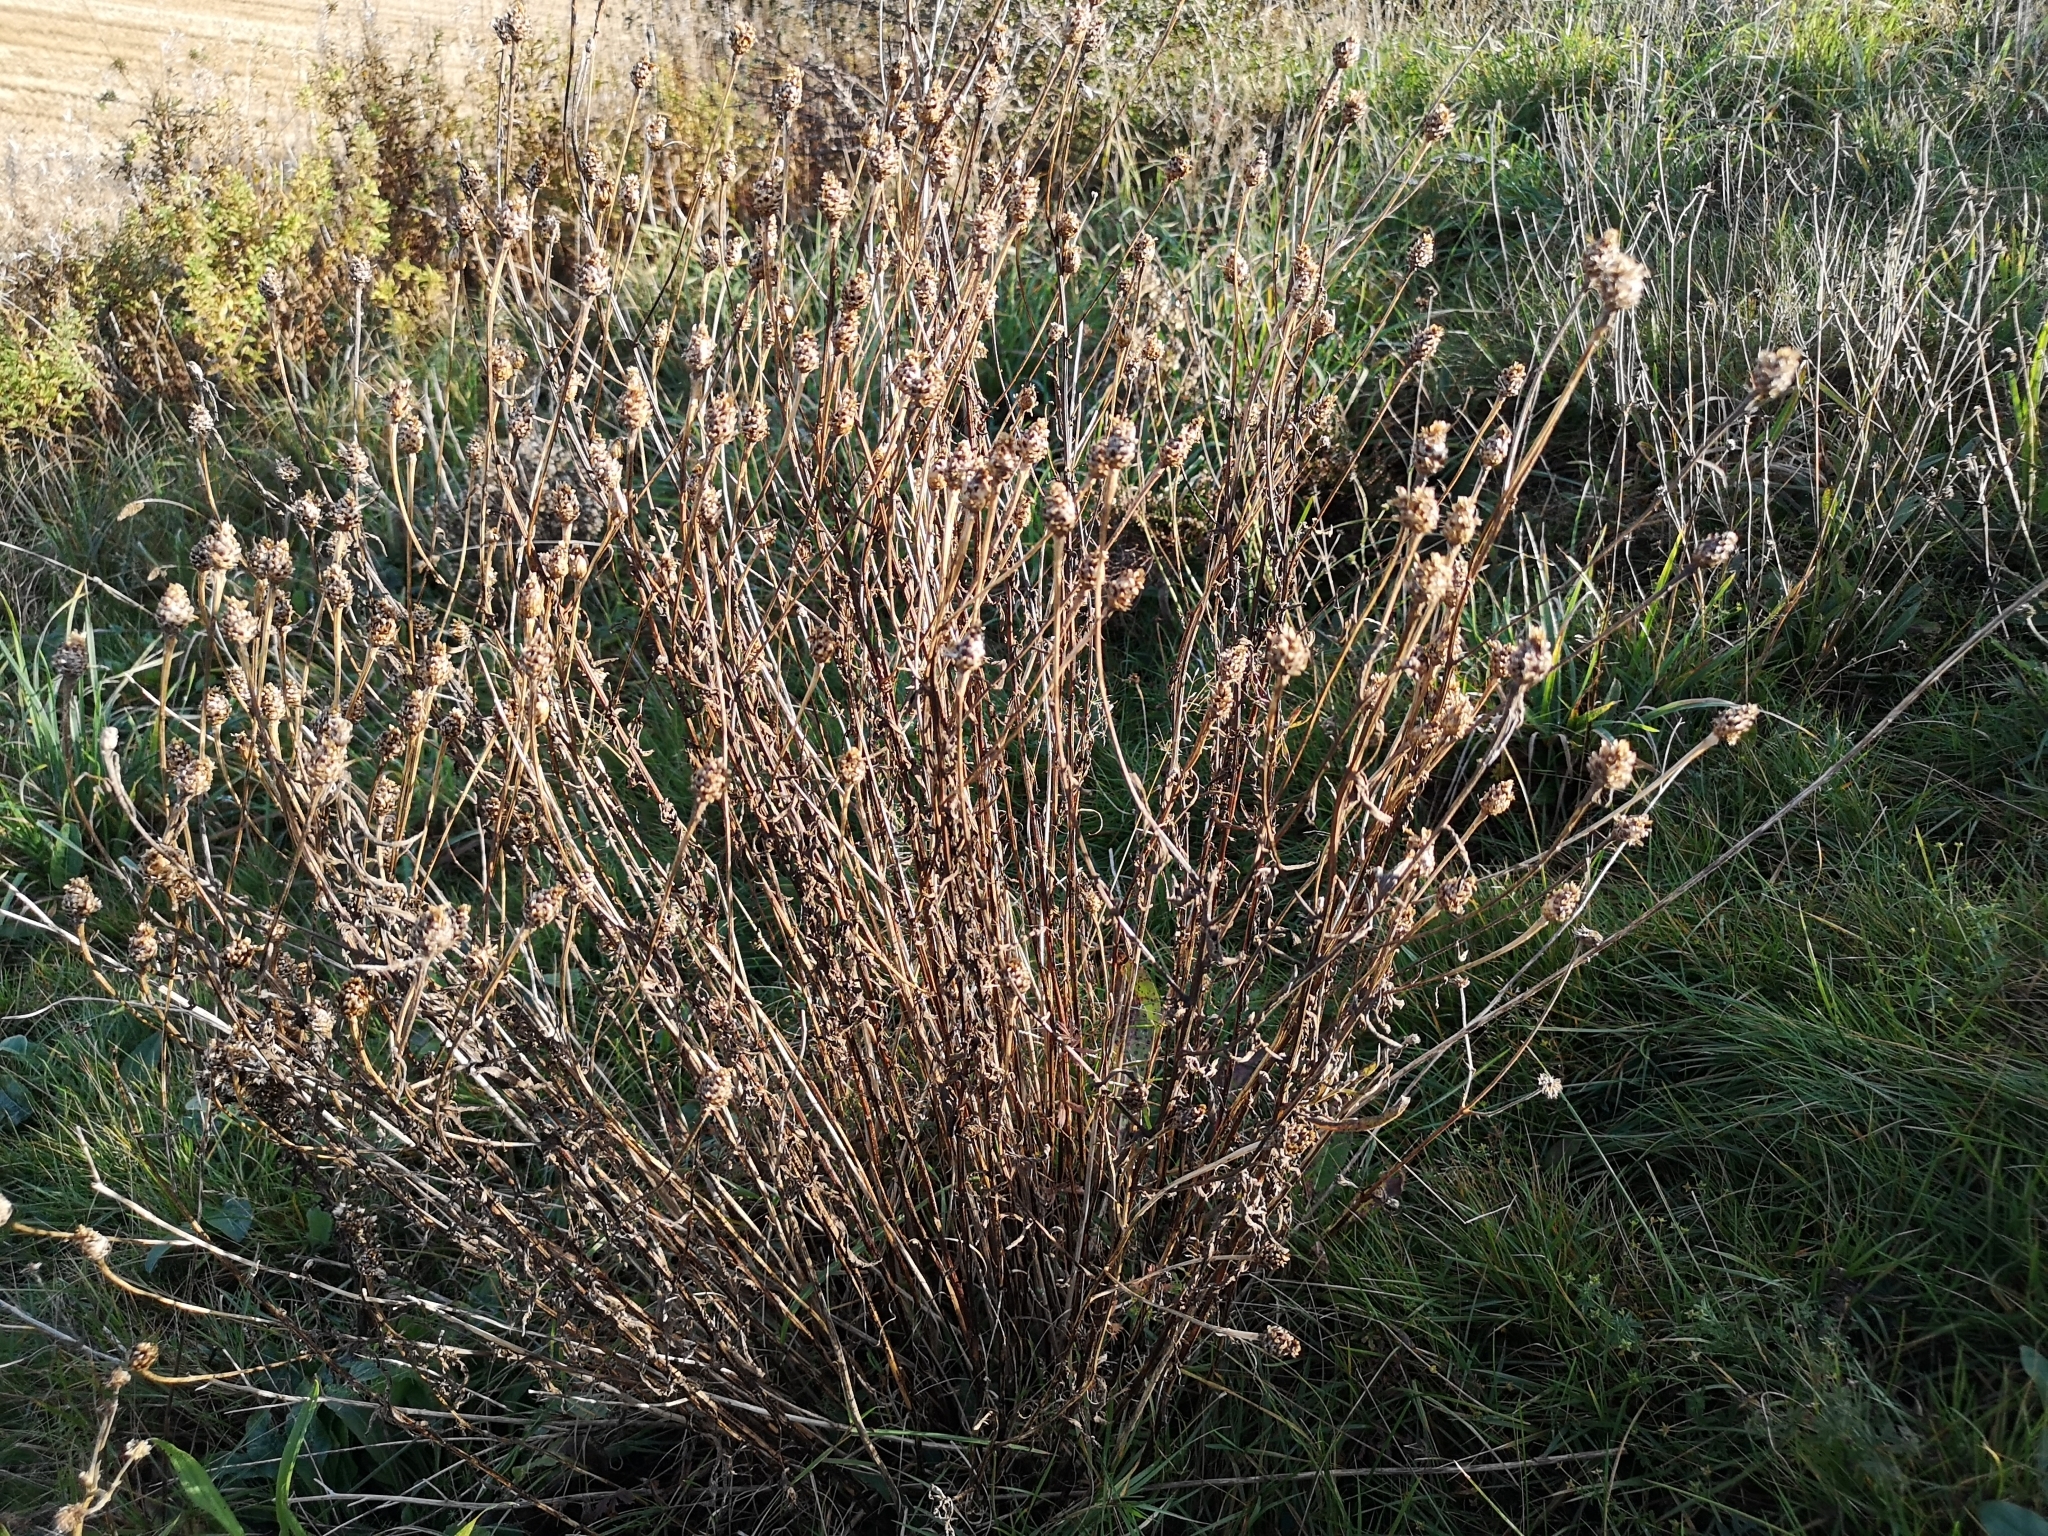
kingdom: Plantae
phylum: Tracheophyta
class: Magnoliopsida
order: Asterales
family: Asteraceae
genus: Centaurea
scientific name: Centaurea jacea
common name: Brown knapweed
